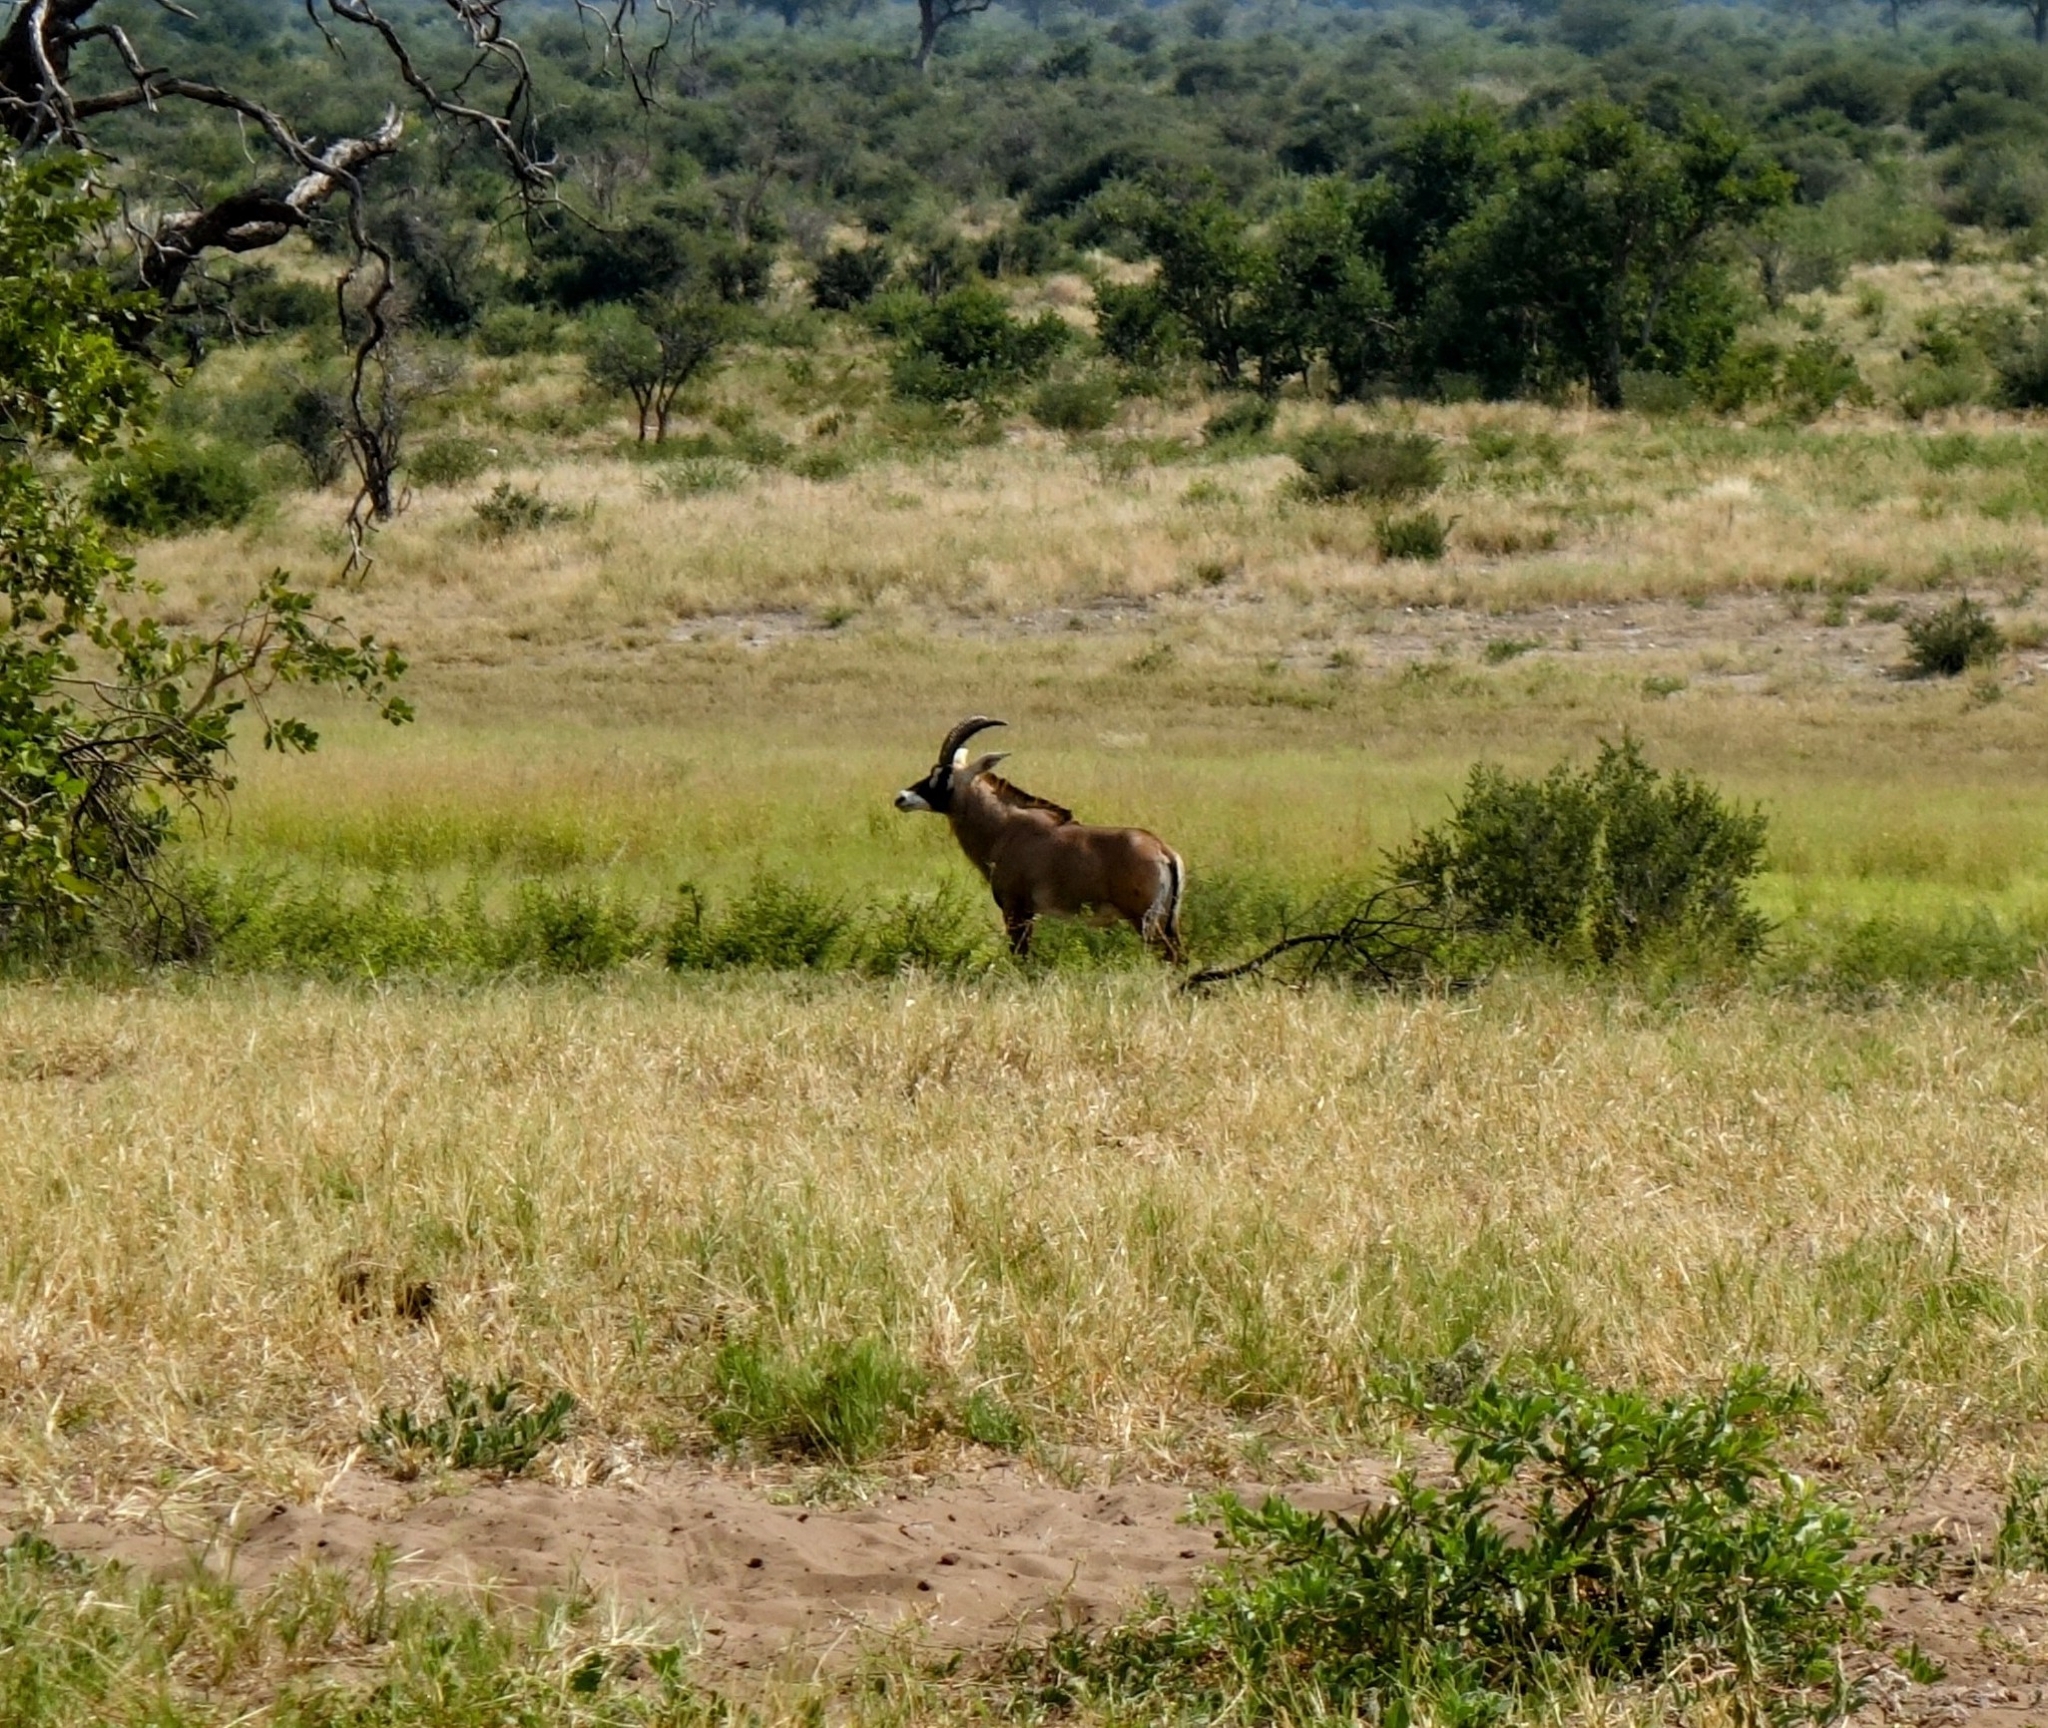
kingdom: Animalia
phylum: Chordata
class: Mammalia
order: Artiodactyla
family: Bovidae
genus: Hippotragus
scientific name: Hippotragus equinus
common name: Roan antelope
